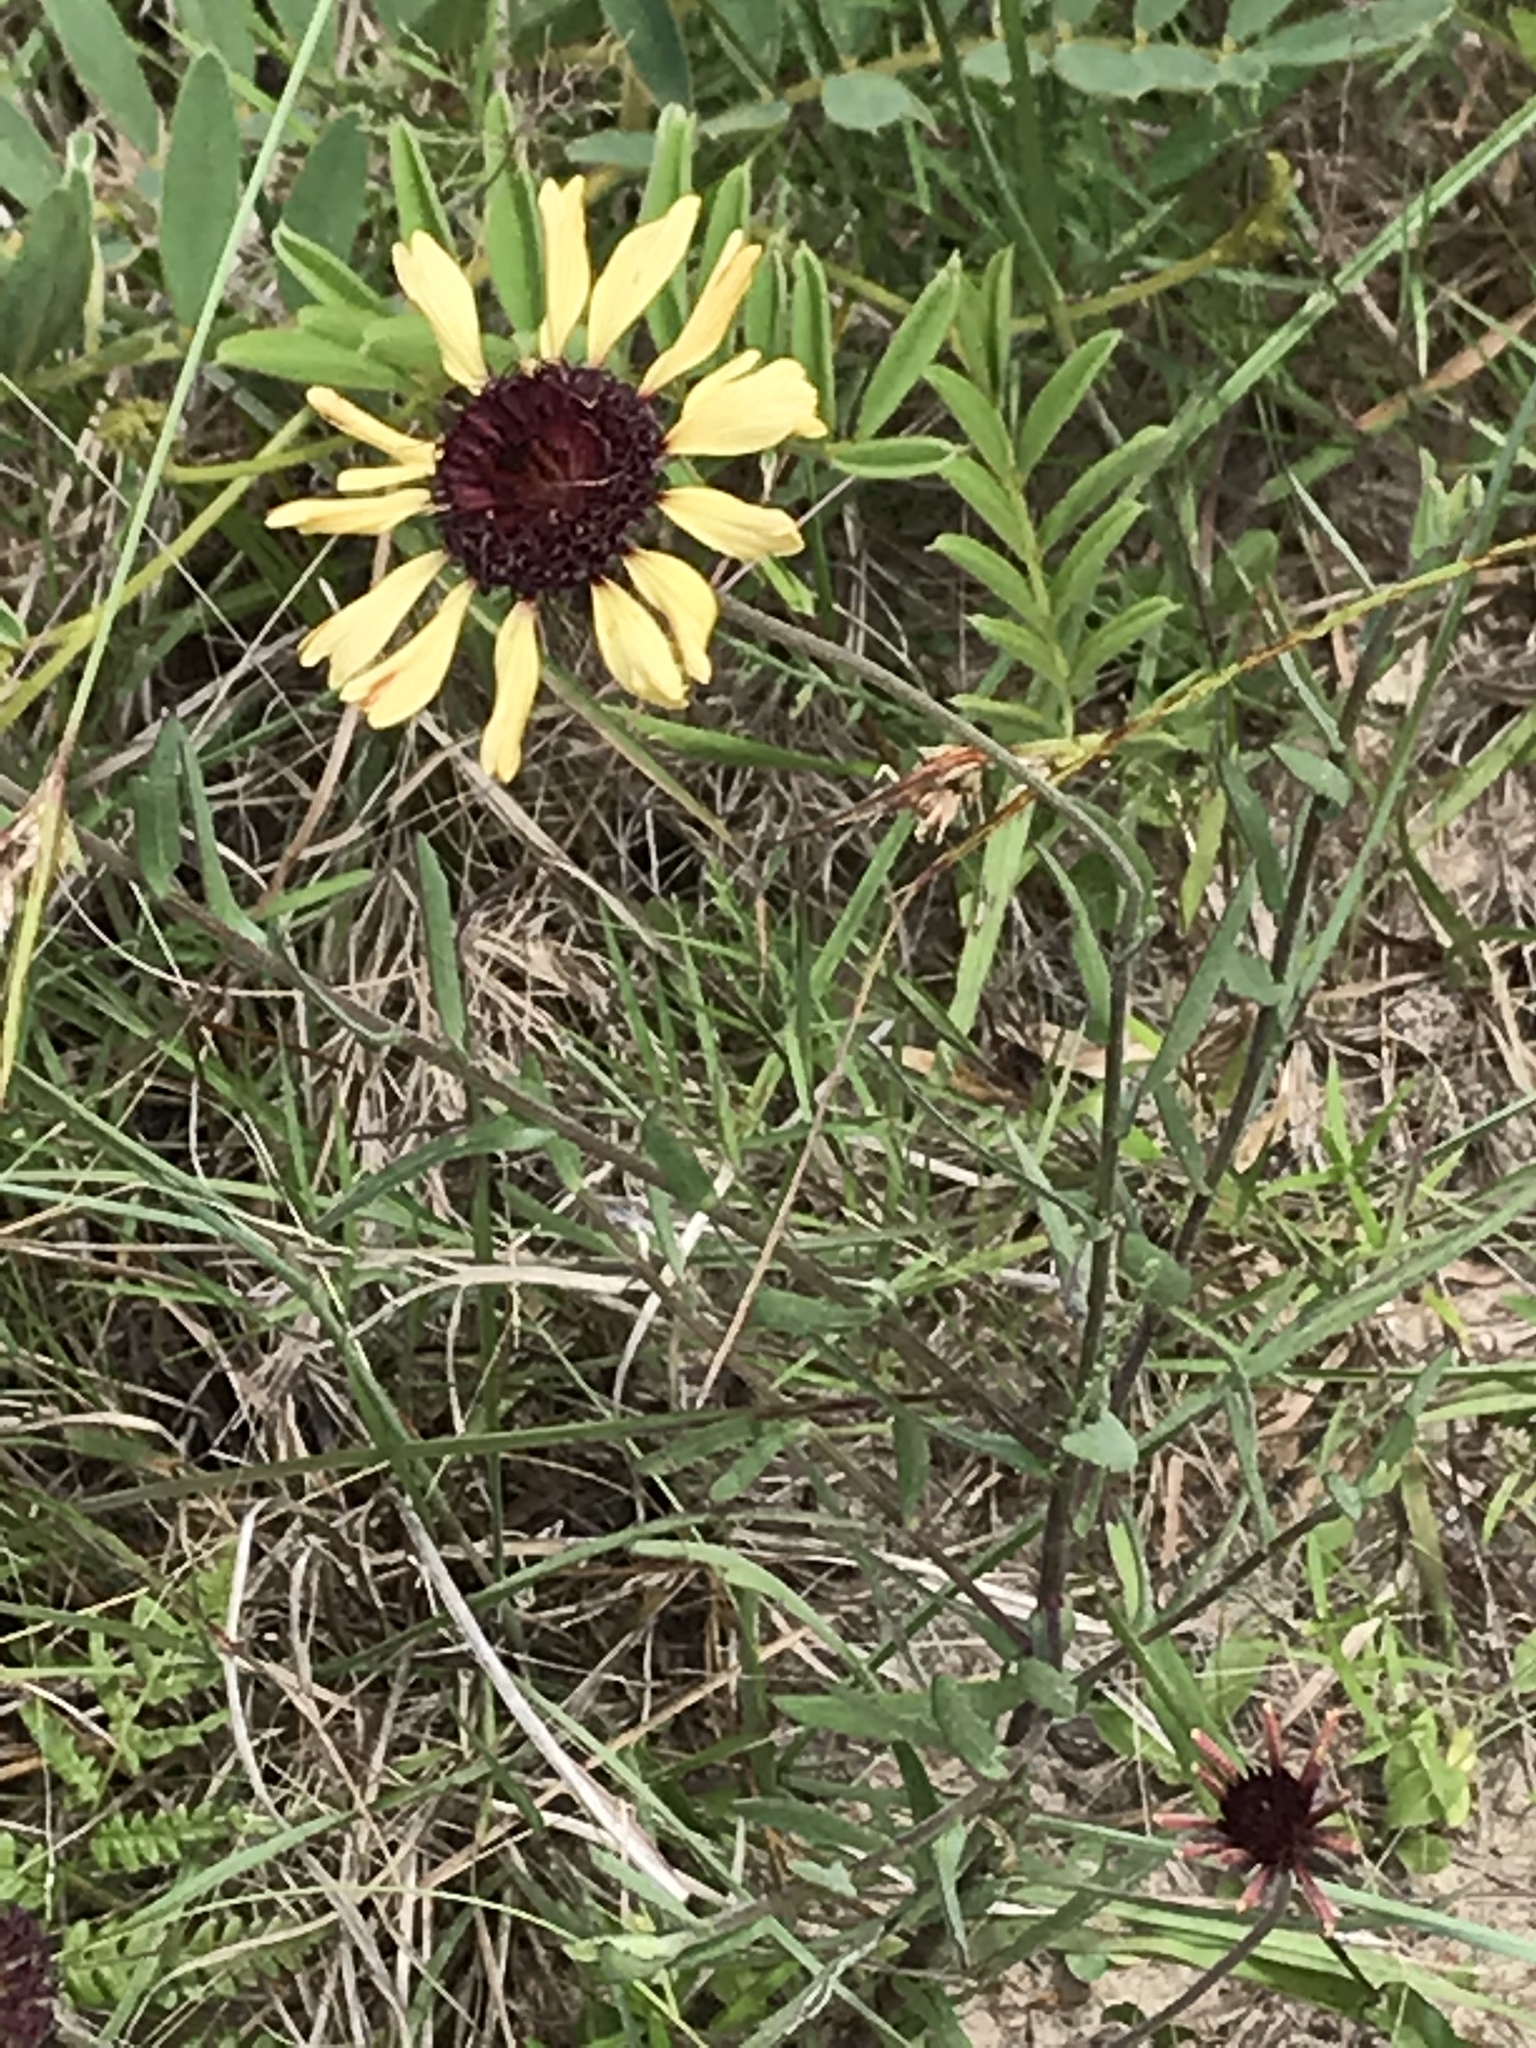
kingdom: Plantae
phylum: Tracheophyta
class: Magnoliopsida
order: Asterales
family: Asteraceae
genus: Gaillardia
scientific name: Gaillardia aestivalis
